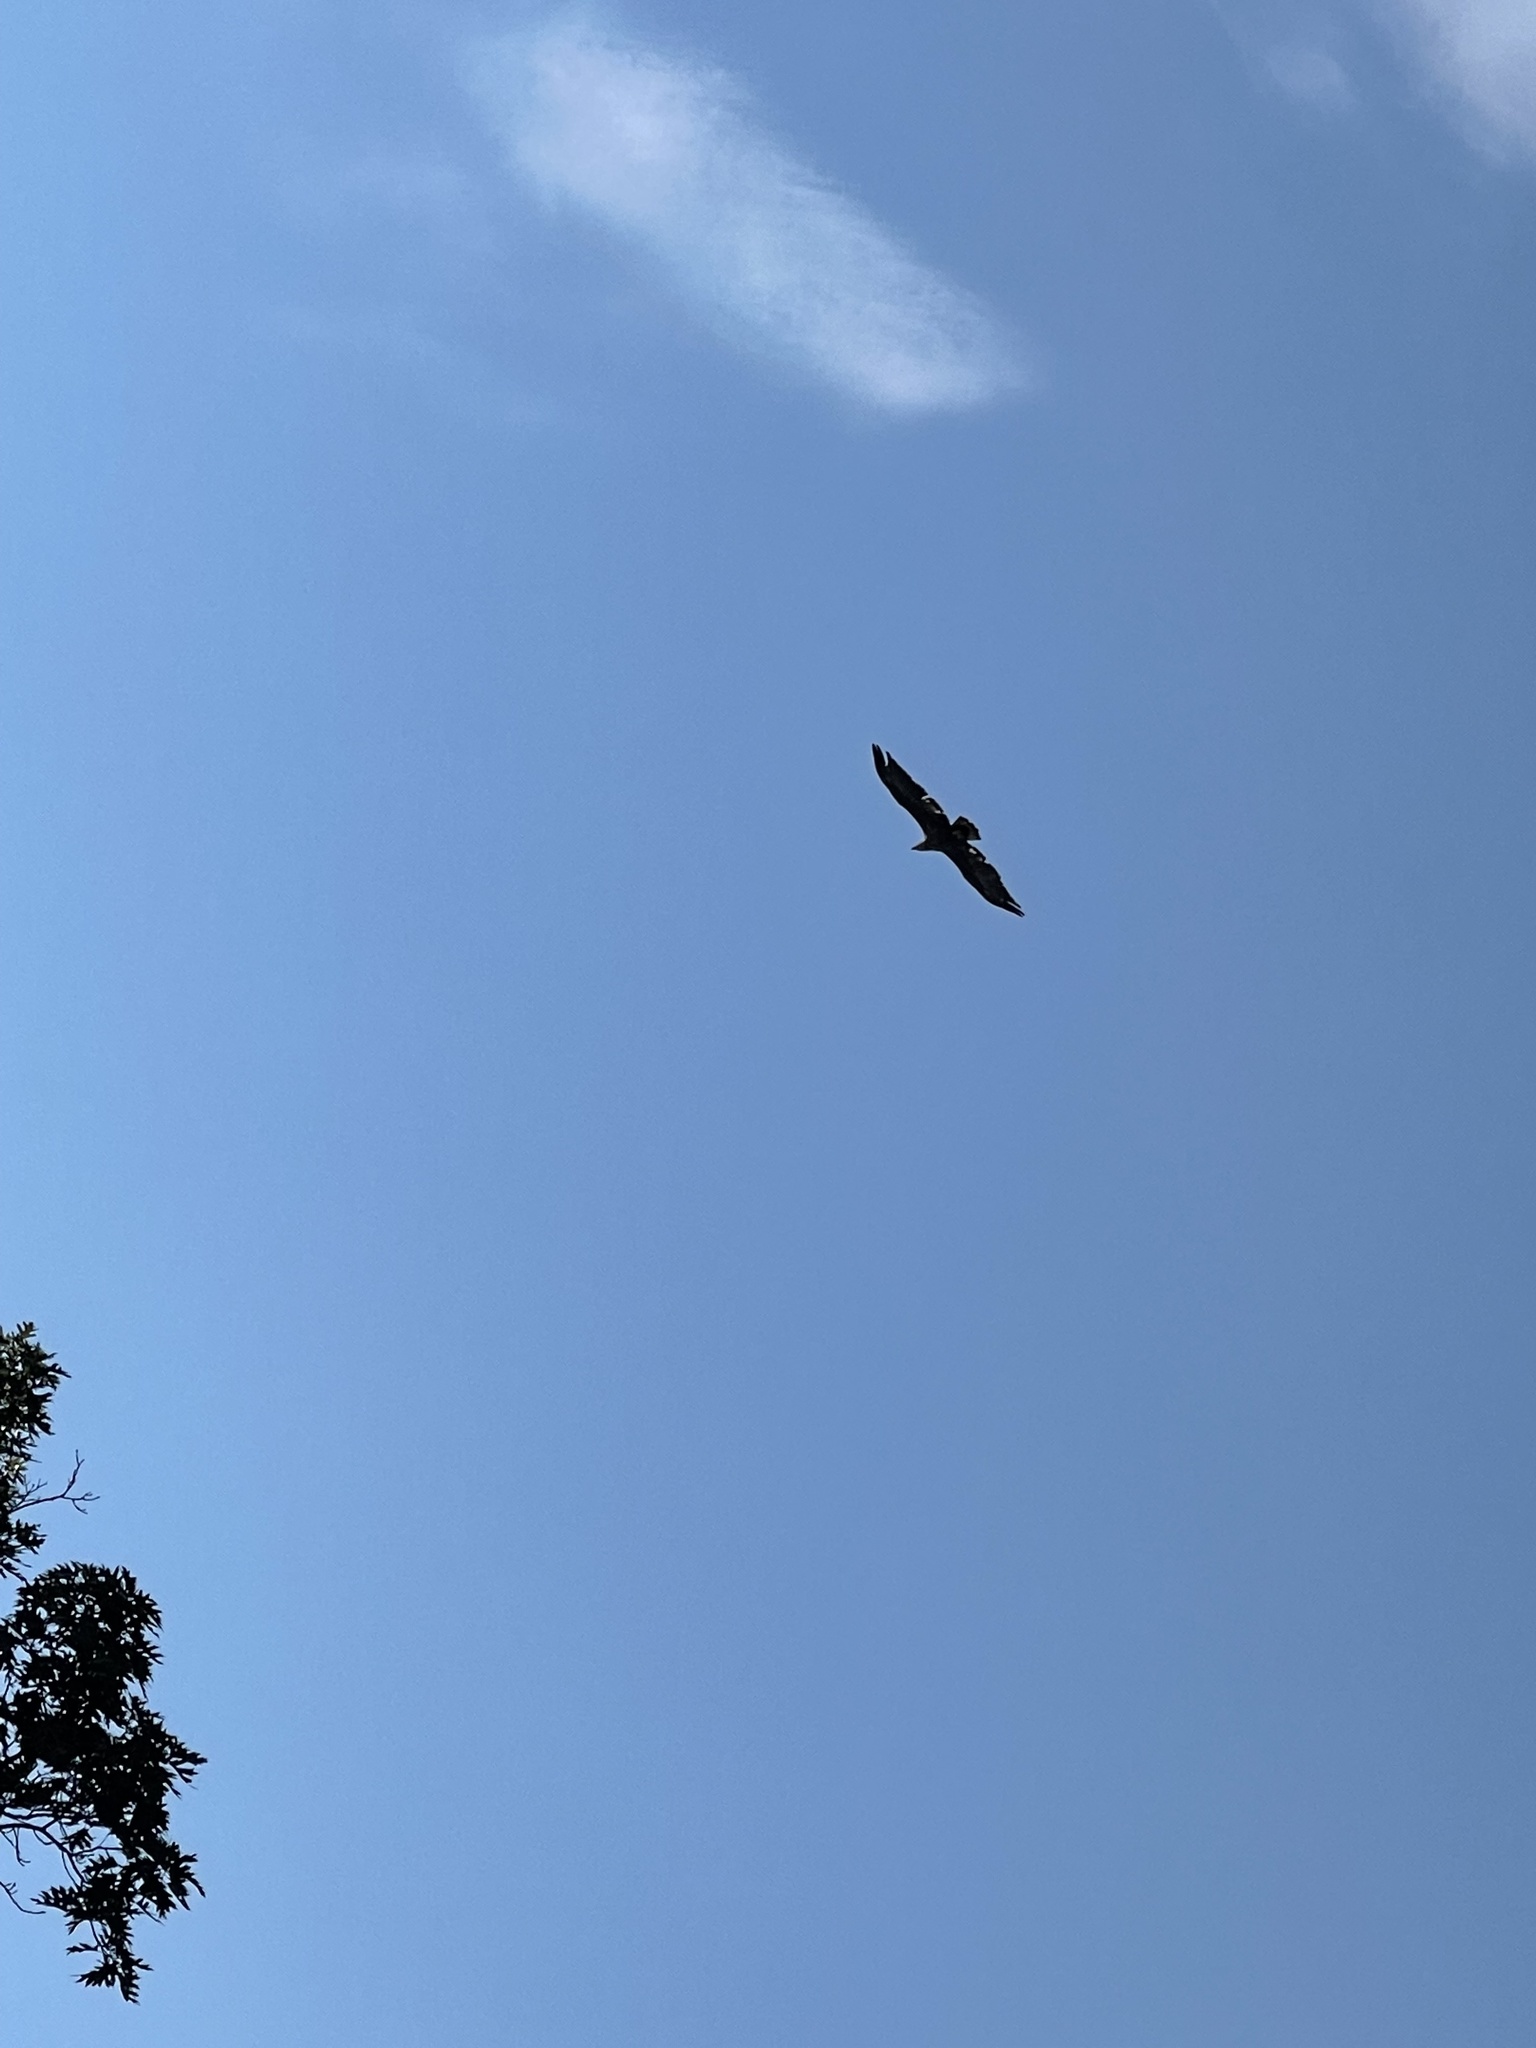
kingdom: Animalia
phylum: Chordata
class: Aves
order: Accipitriformes
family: Accipitridae
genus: Haliaeetus
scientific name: Haliaeetus leucocephalus
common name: Bald eagle
